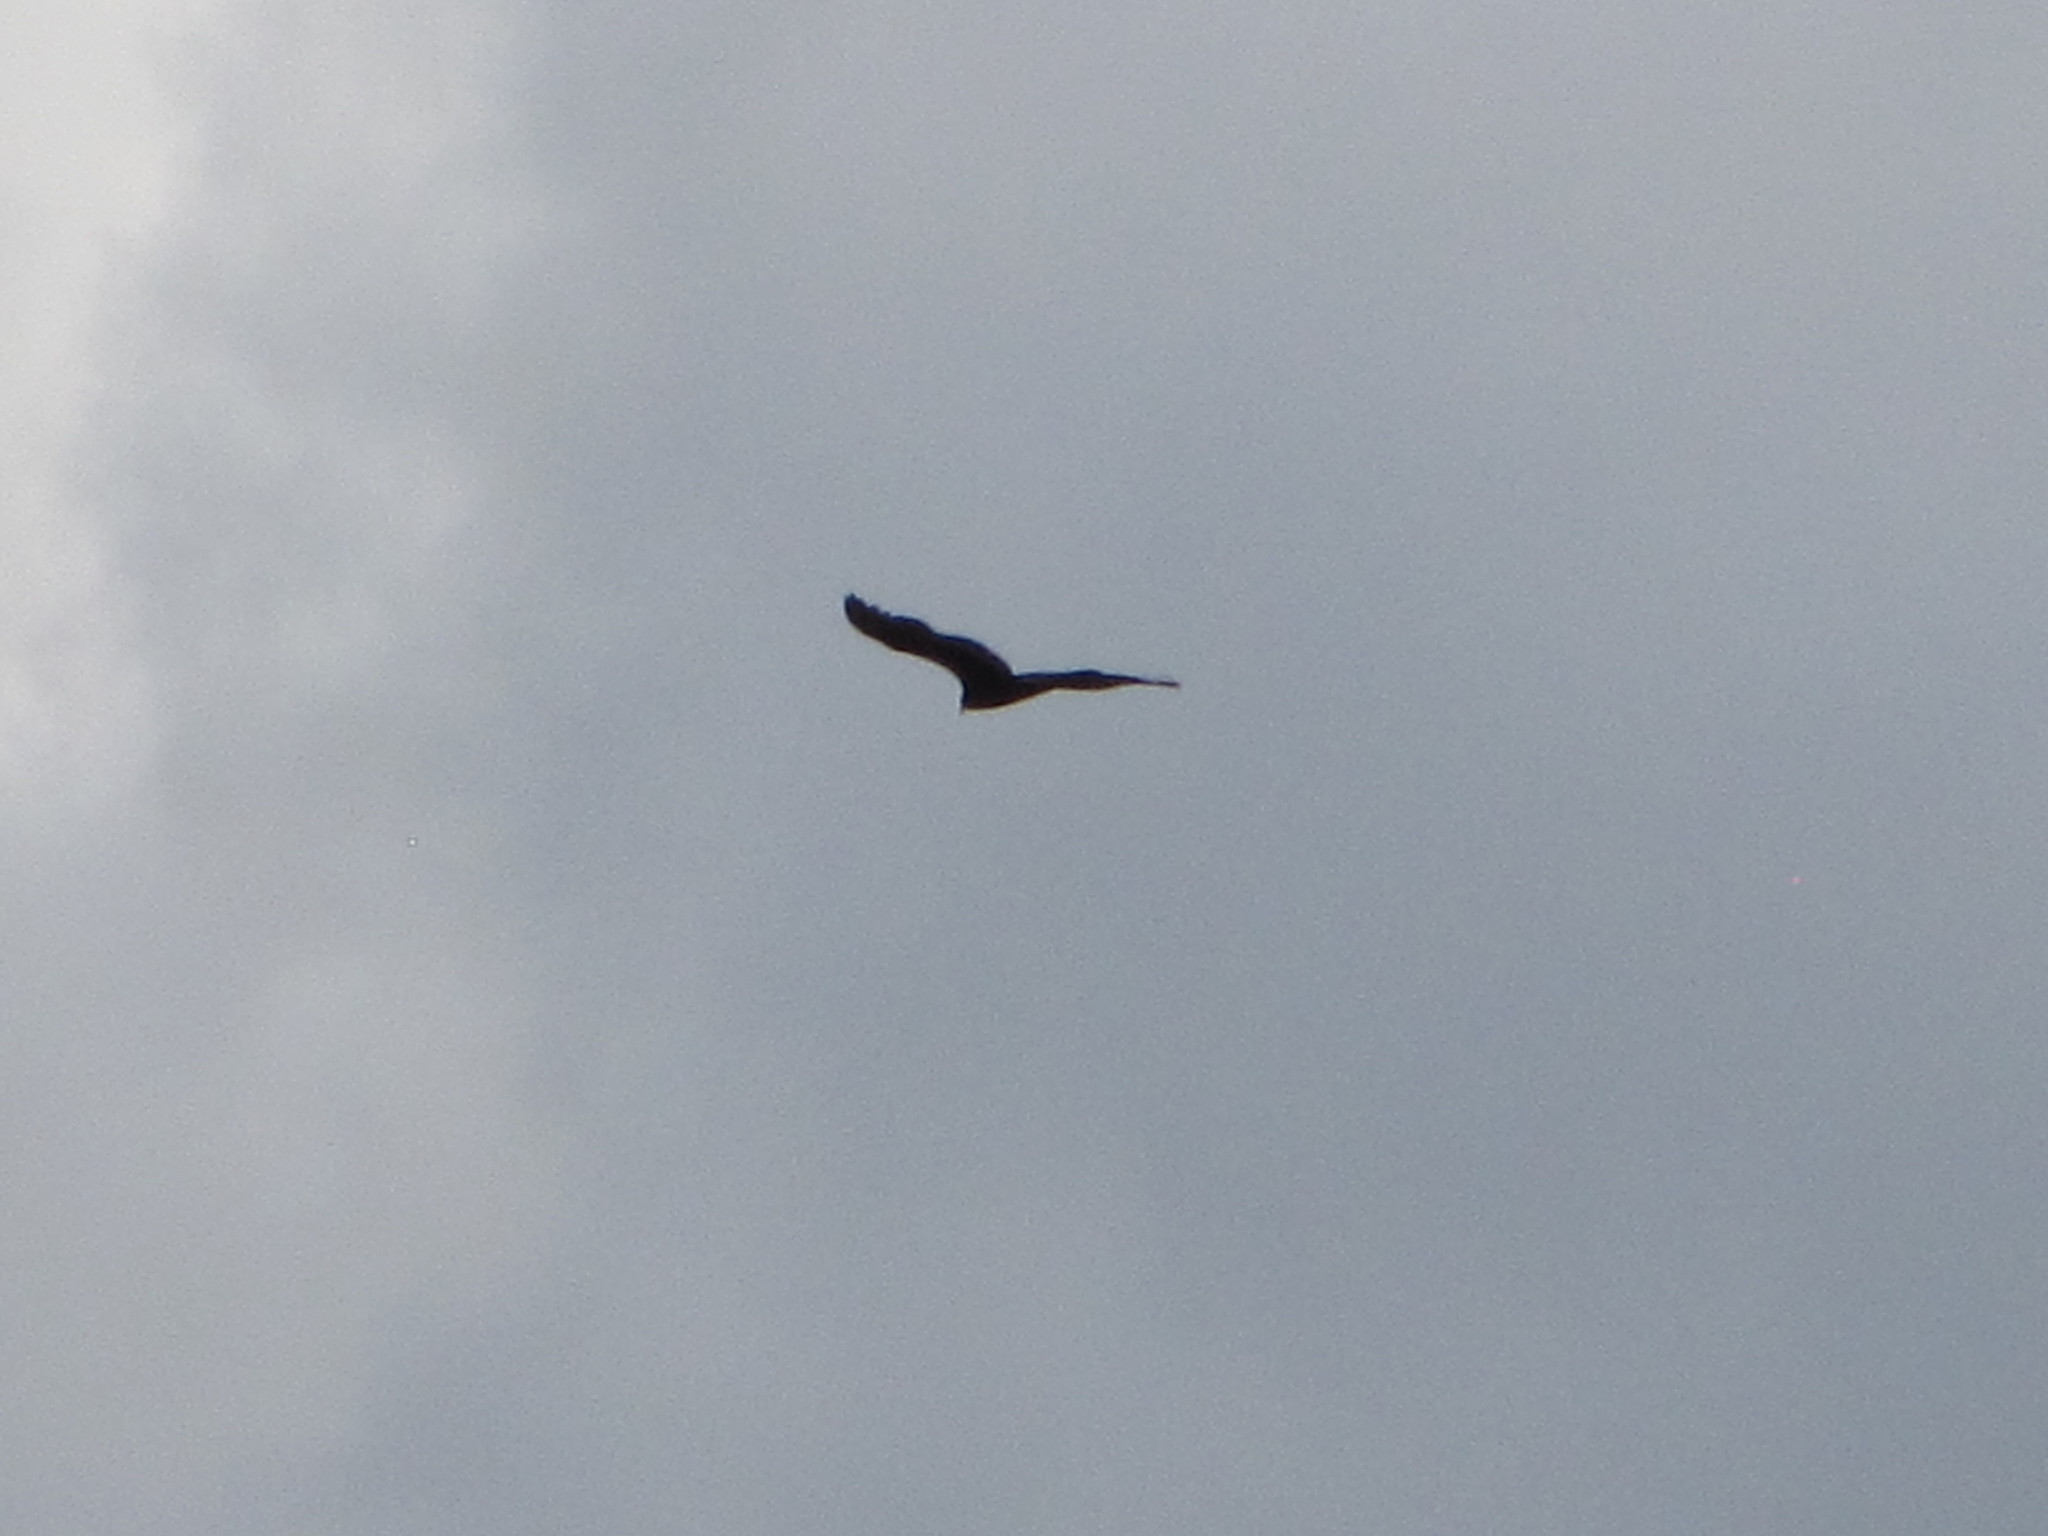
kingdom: Animalia
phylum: Chordata
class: Aves
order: Accipitriformes
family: Cathartidae
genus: Cathartes
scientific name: Cathartes aura
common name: Turkey vulture
